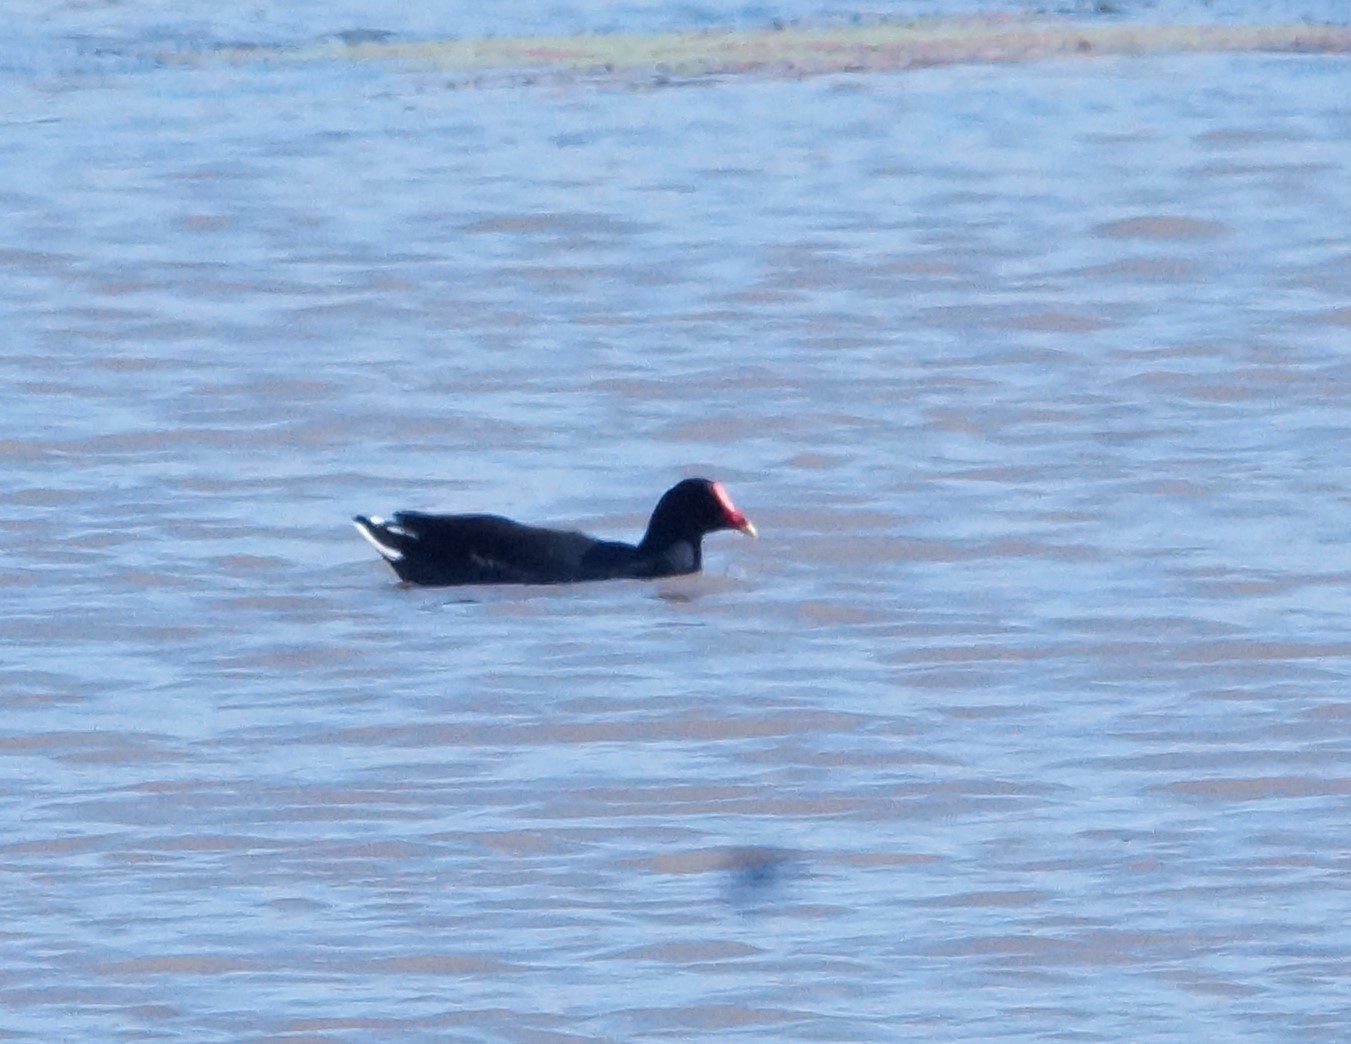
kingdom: Animalia
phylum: Chordata
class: Aves
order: Gruiformes
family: Rallidae
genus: Gallinula
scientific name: Gallinula tenebrosa
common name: Dusky moorhen
